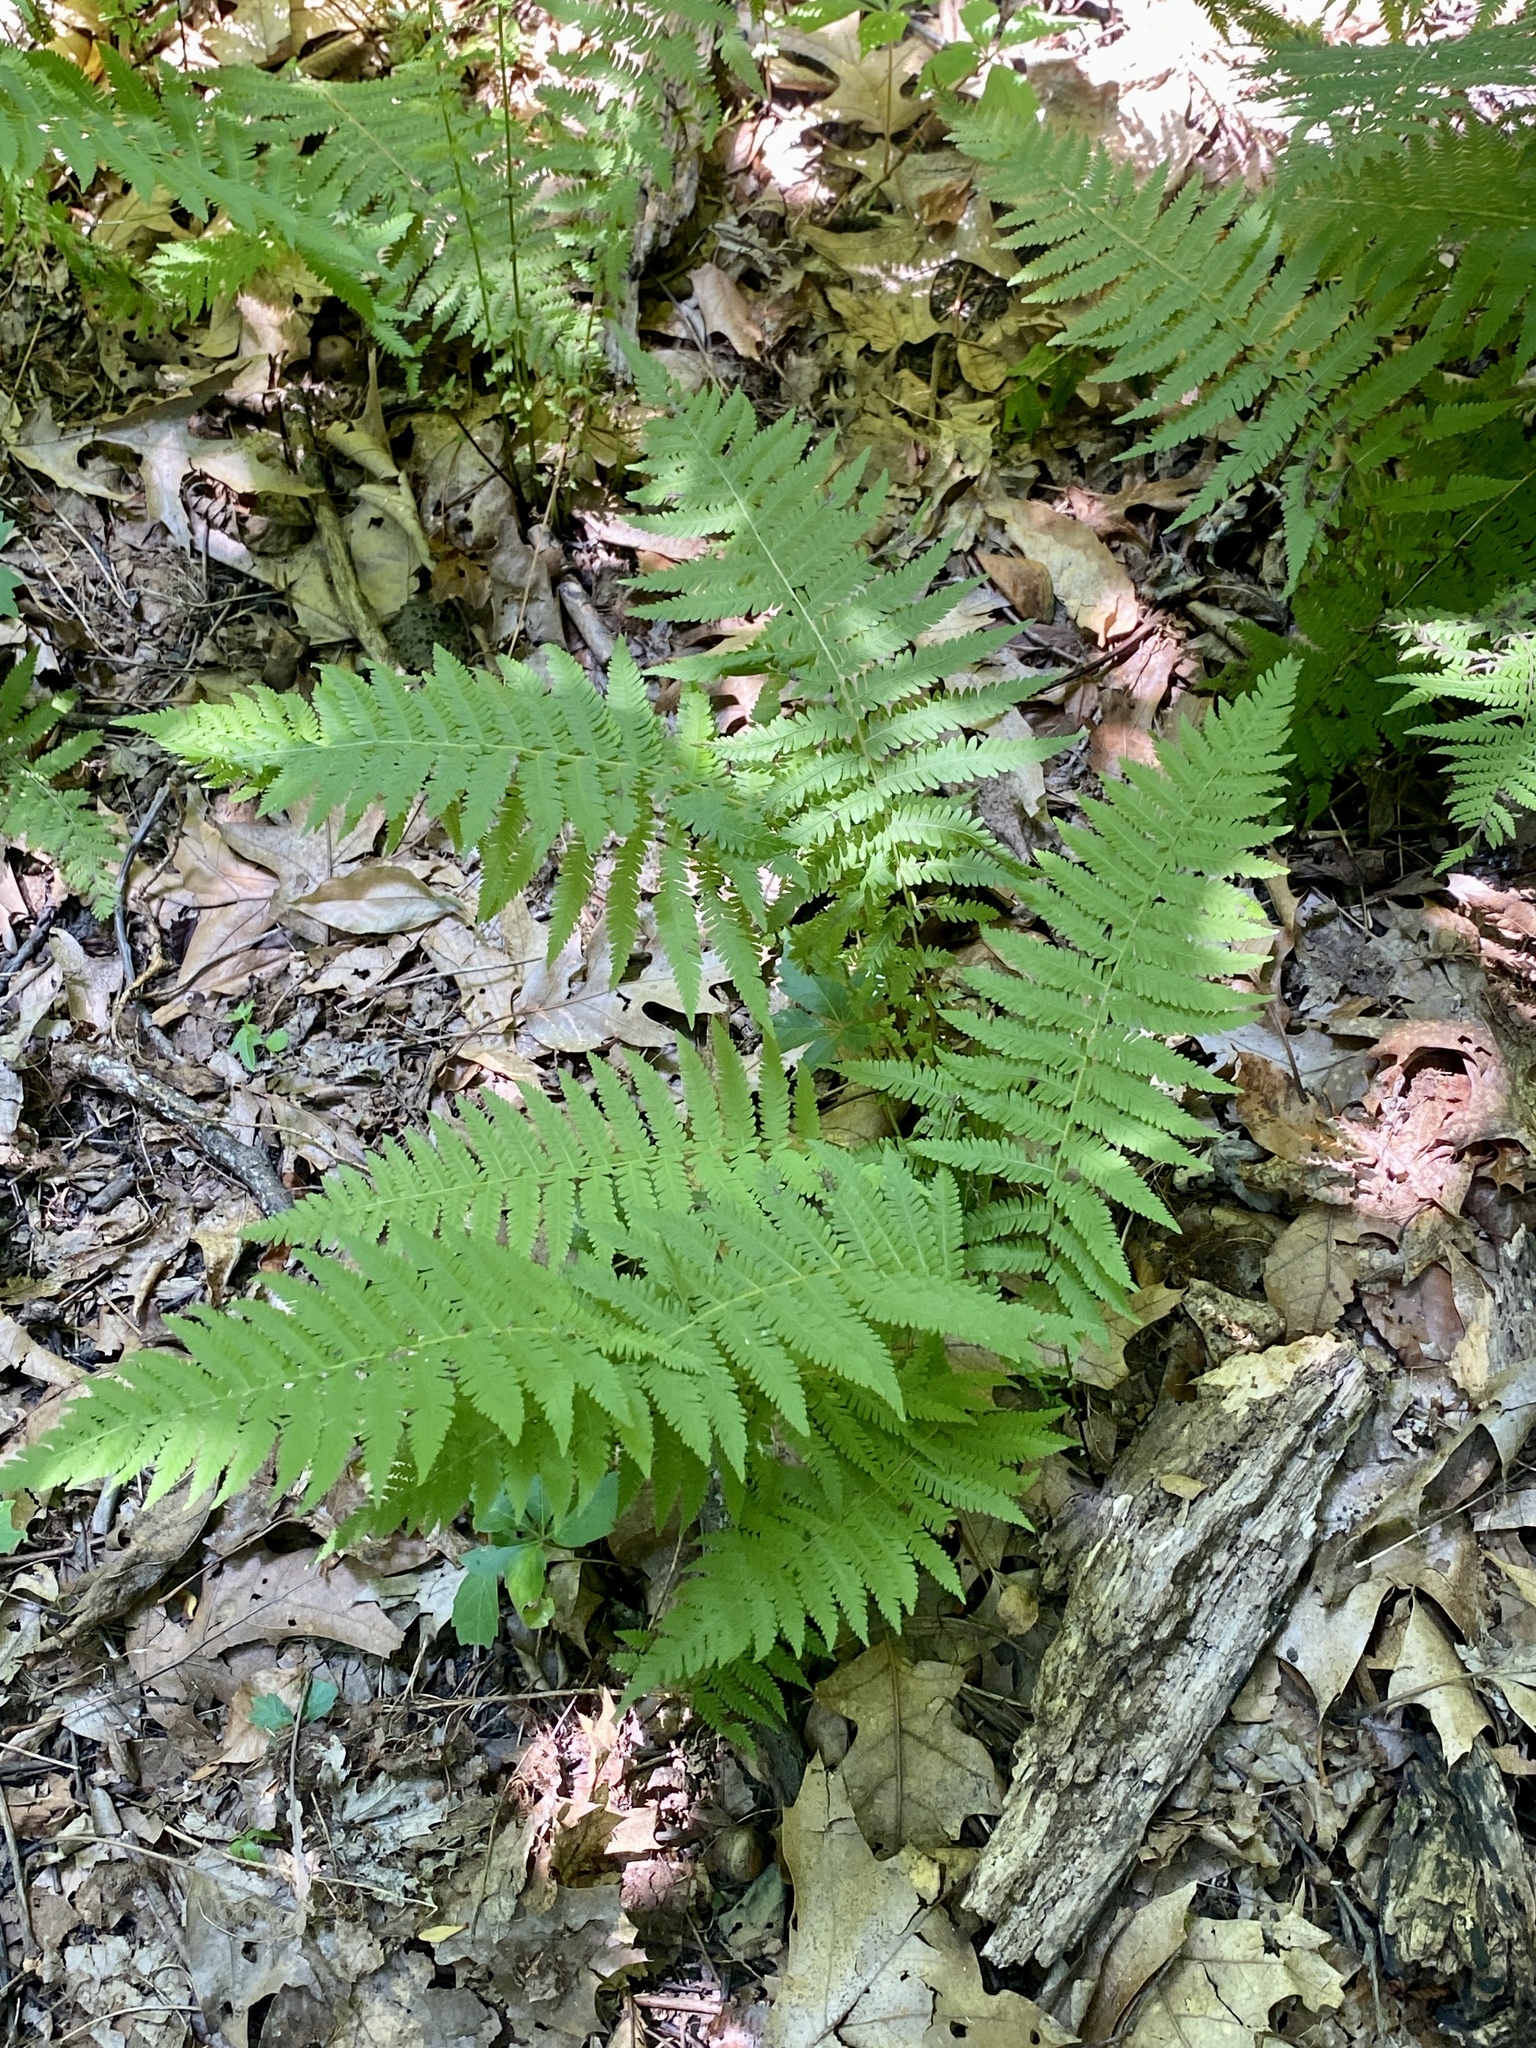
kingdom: Plantae
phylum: Tracheophyta
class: Polypodiopsida
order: Polypodiales
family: Thelypteridaceae
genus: Amauropelta
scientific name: Amauropelta noveboracensis
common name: New york fern
